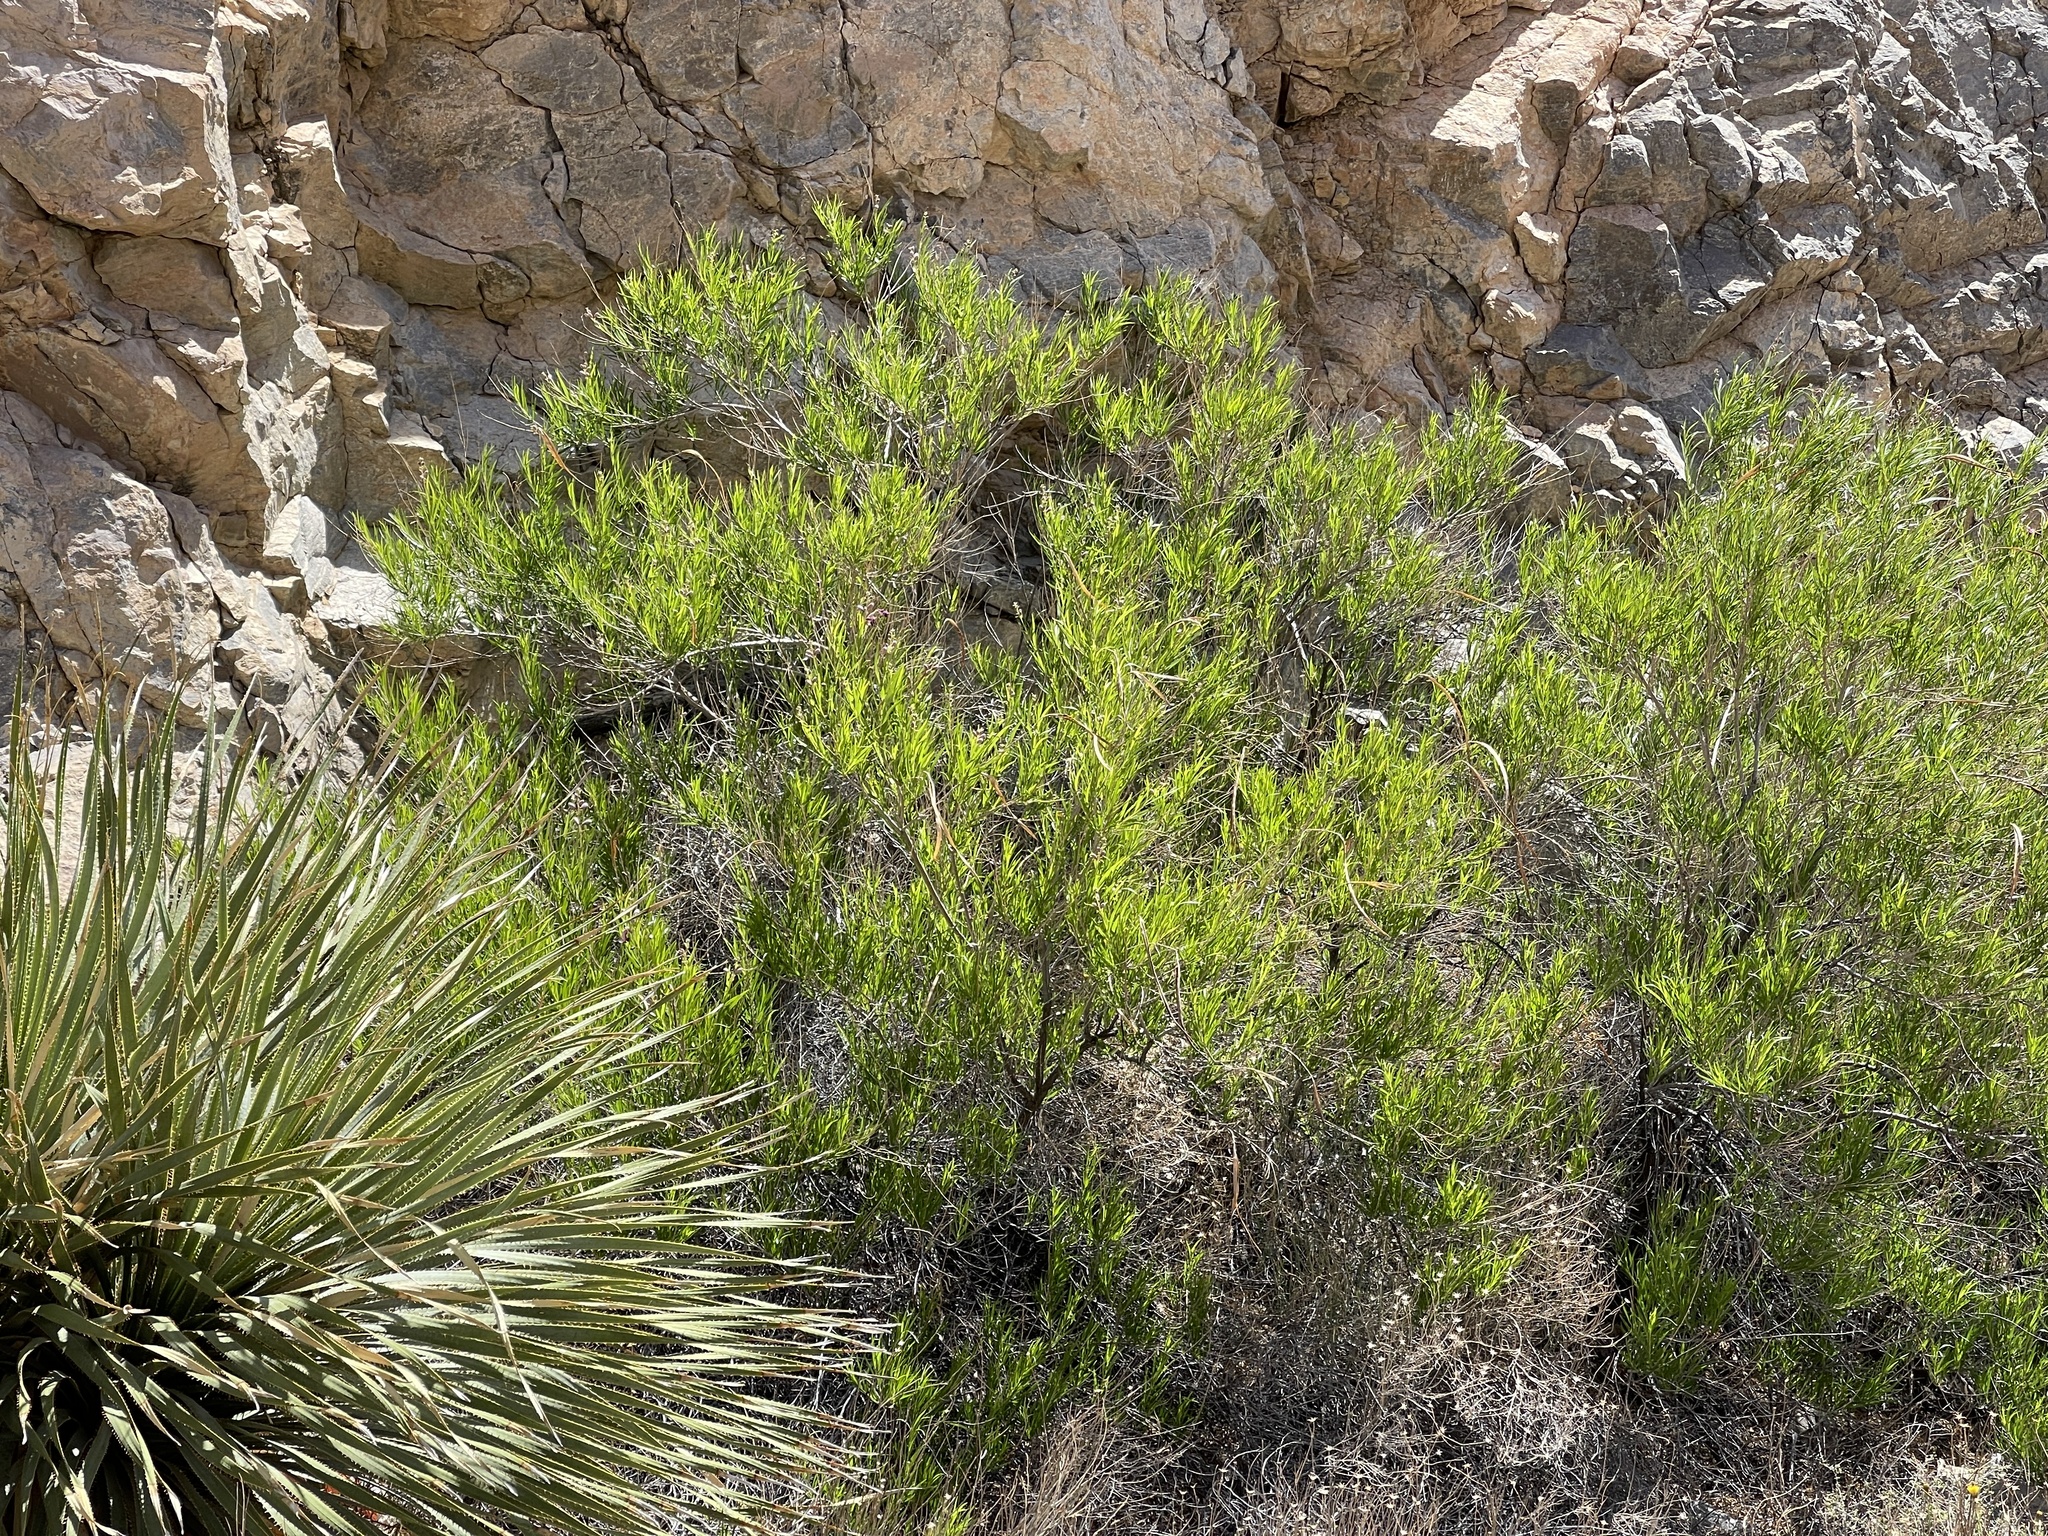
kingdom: Plantae
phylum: Tracheophyta
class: Magnoliopsida
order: Lamiales
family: Bignoniaceae
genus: Chilopsis
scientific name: Chilopsis linearis
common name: Desert-willow
